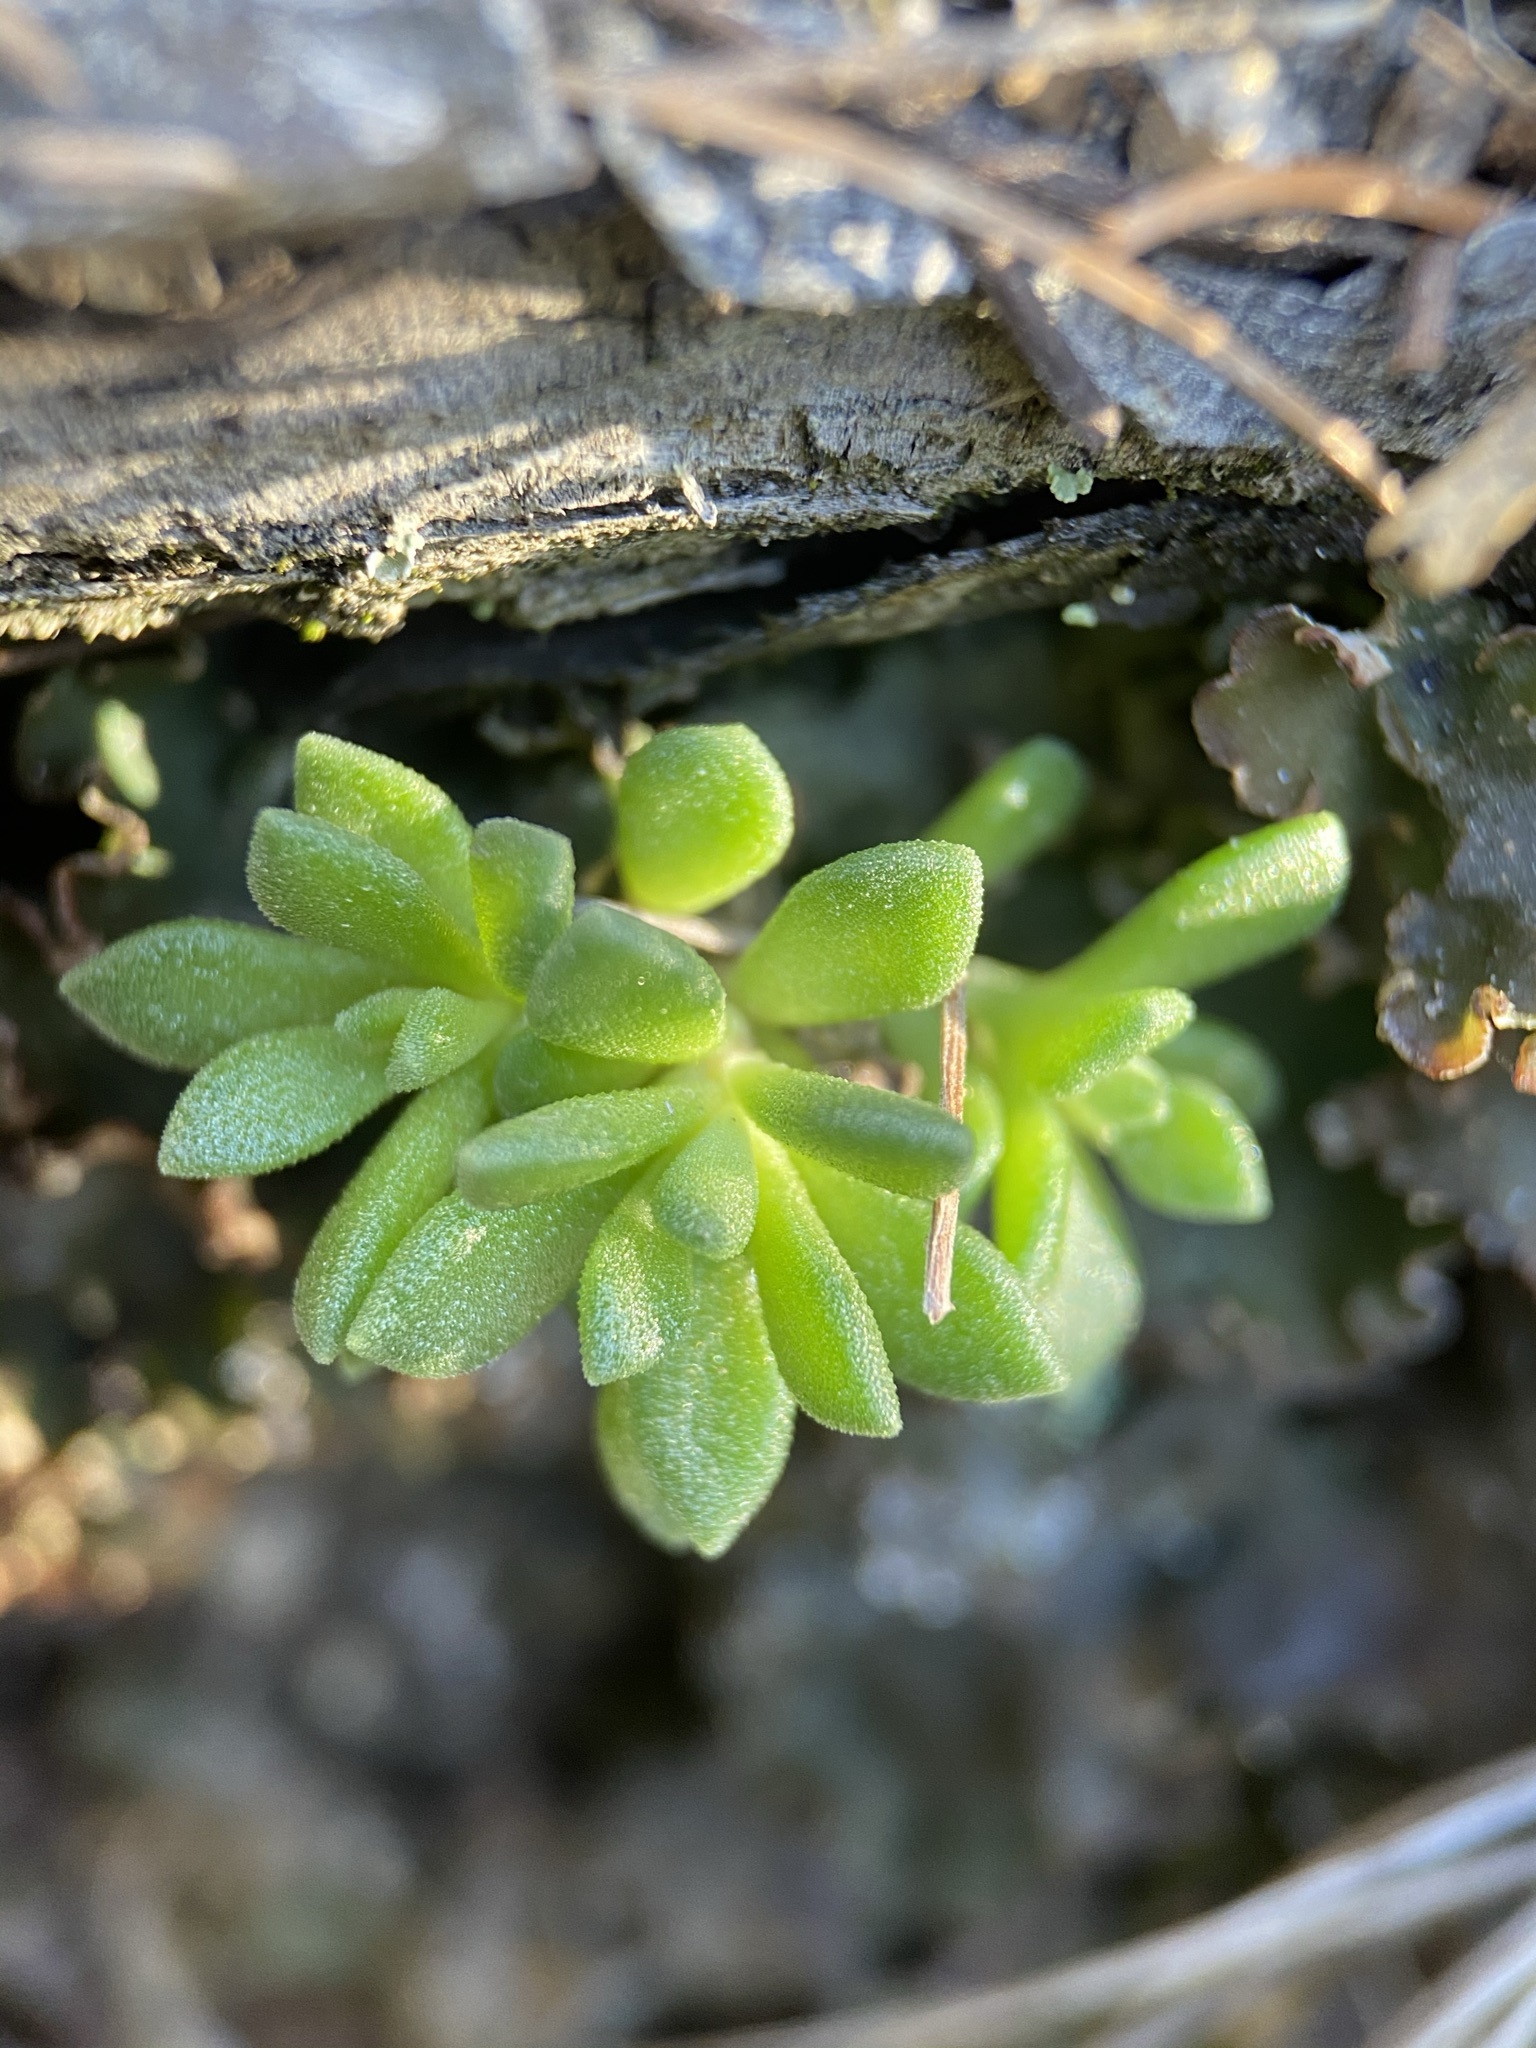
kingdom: Plantae
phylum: Tracheophyta
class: Magnoliopsida
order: Saxifragales
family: Crassulaceae
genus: Sedum
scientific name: Sedum cockerellii
